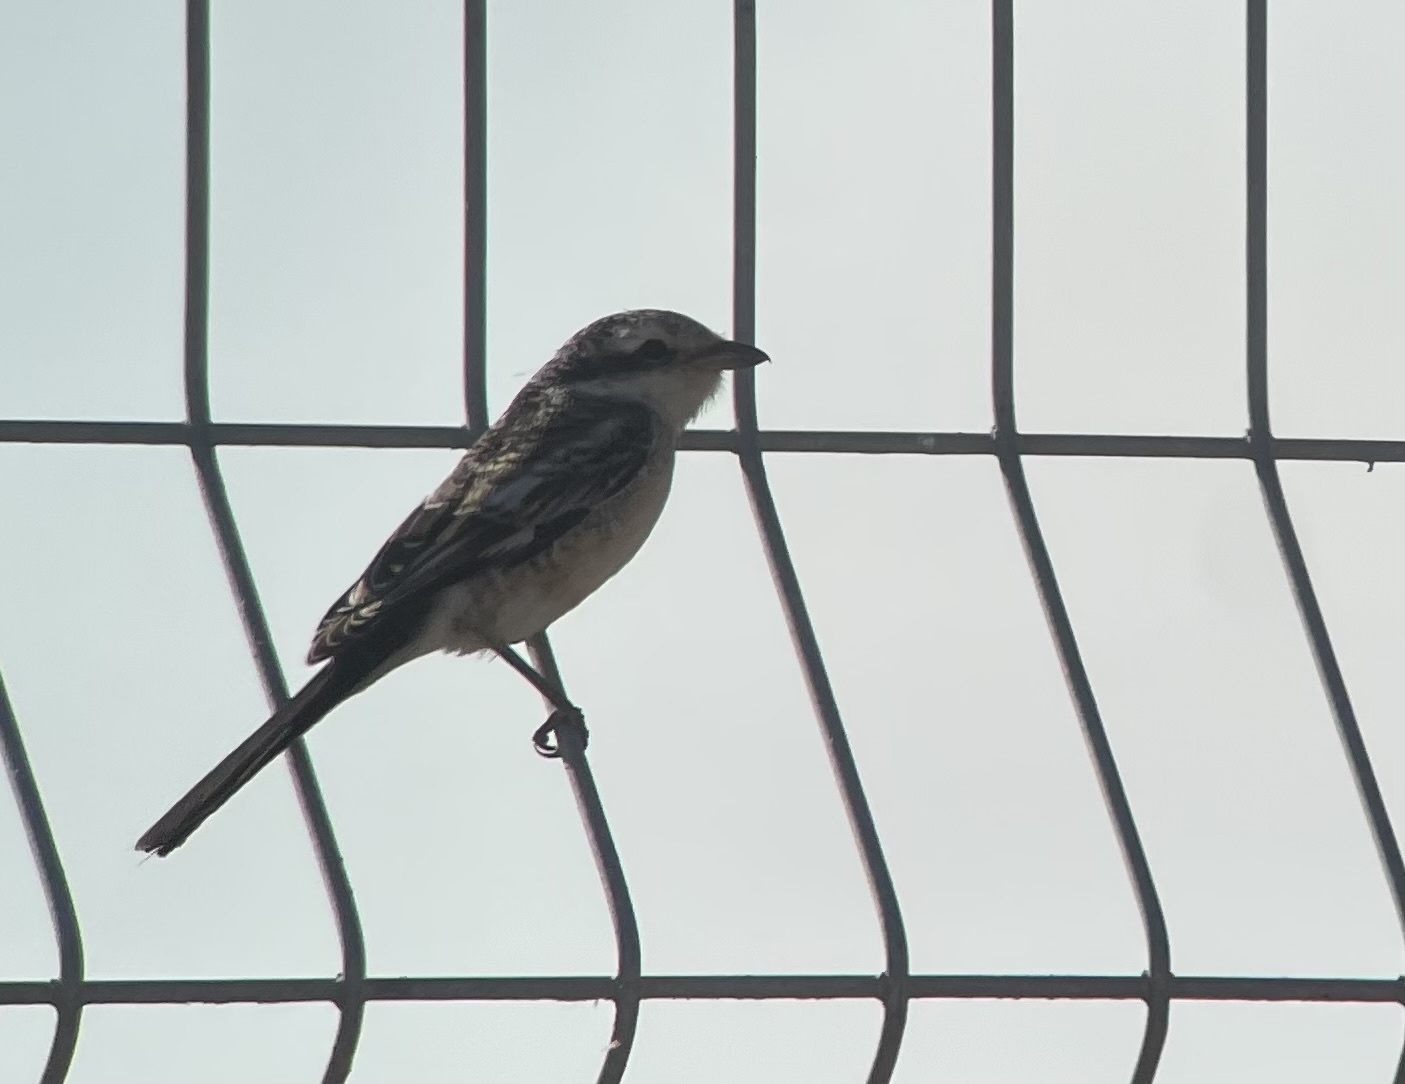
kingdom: Animalia
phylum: Chordata
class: Aves
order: Passeriformes
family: Laniidae
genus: Lanius
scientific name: Lanius nubicus
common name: Masked shrike
